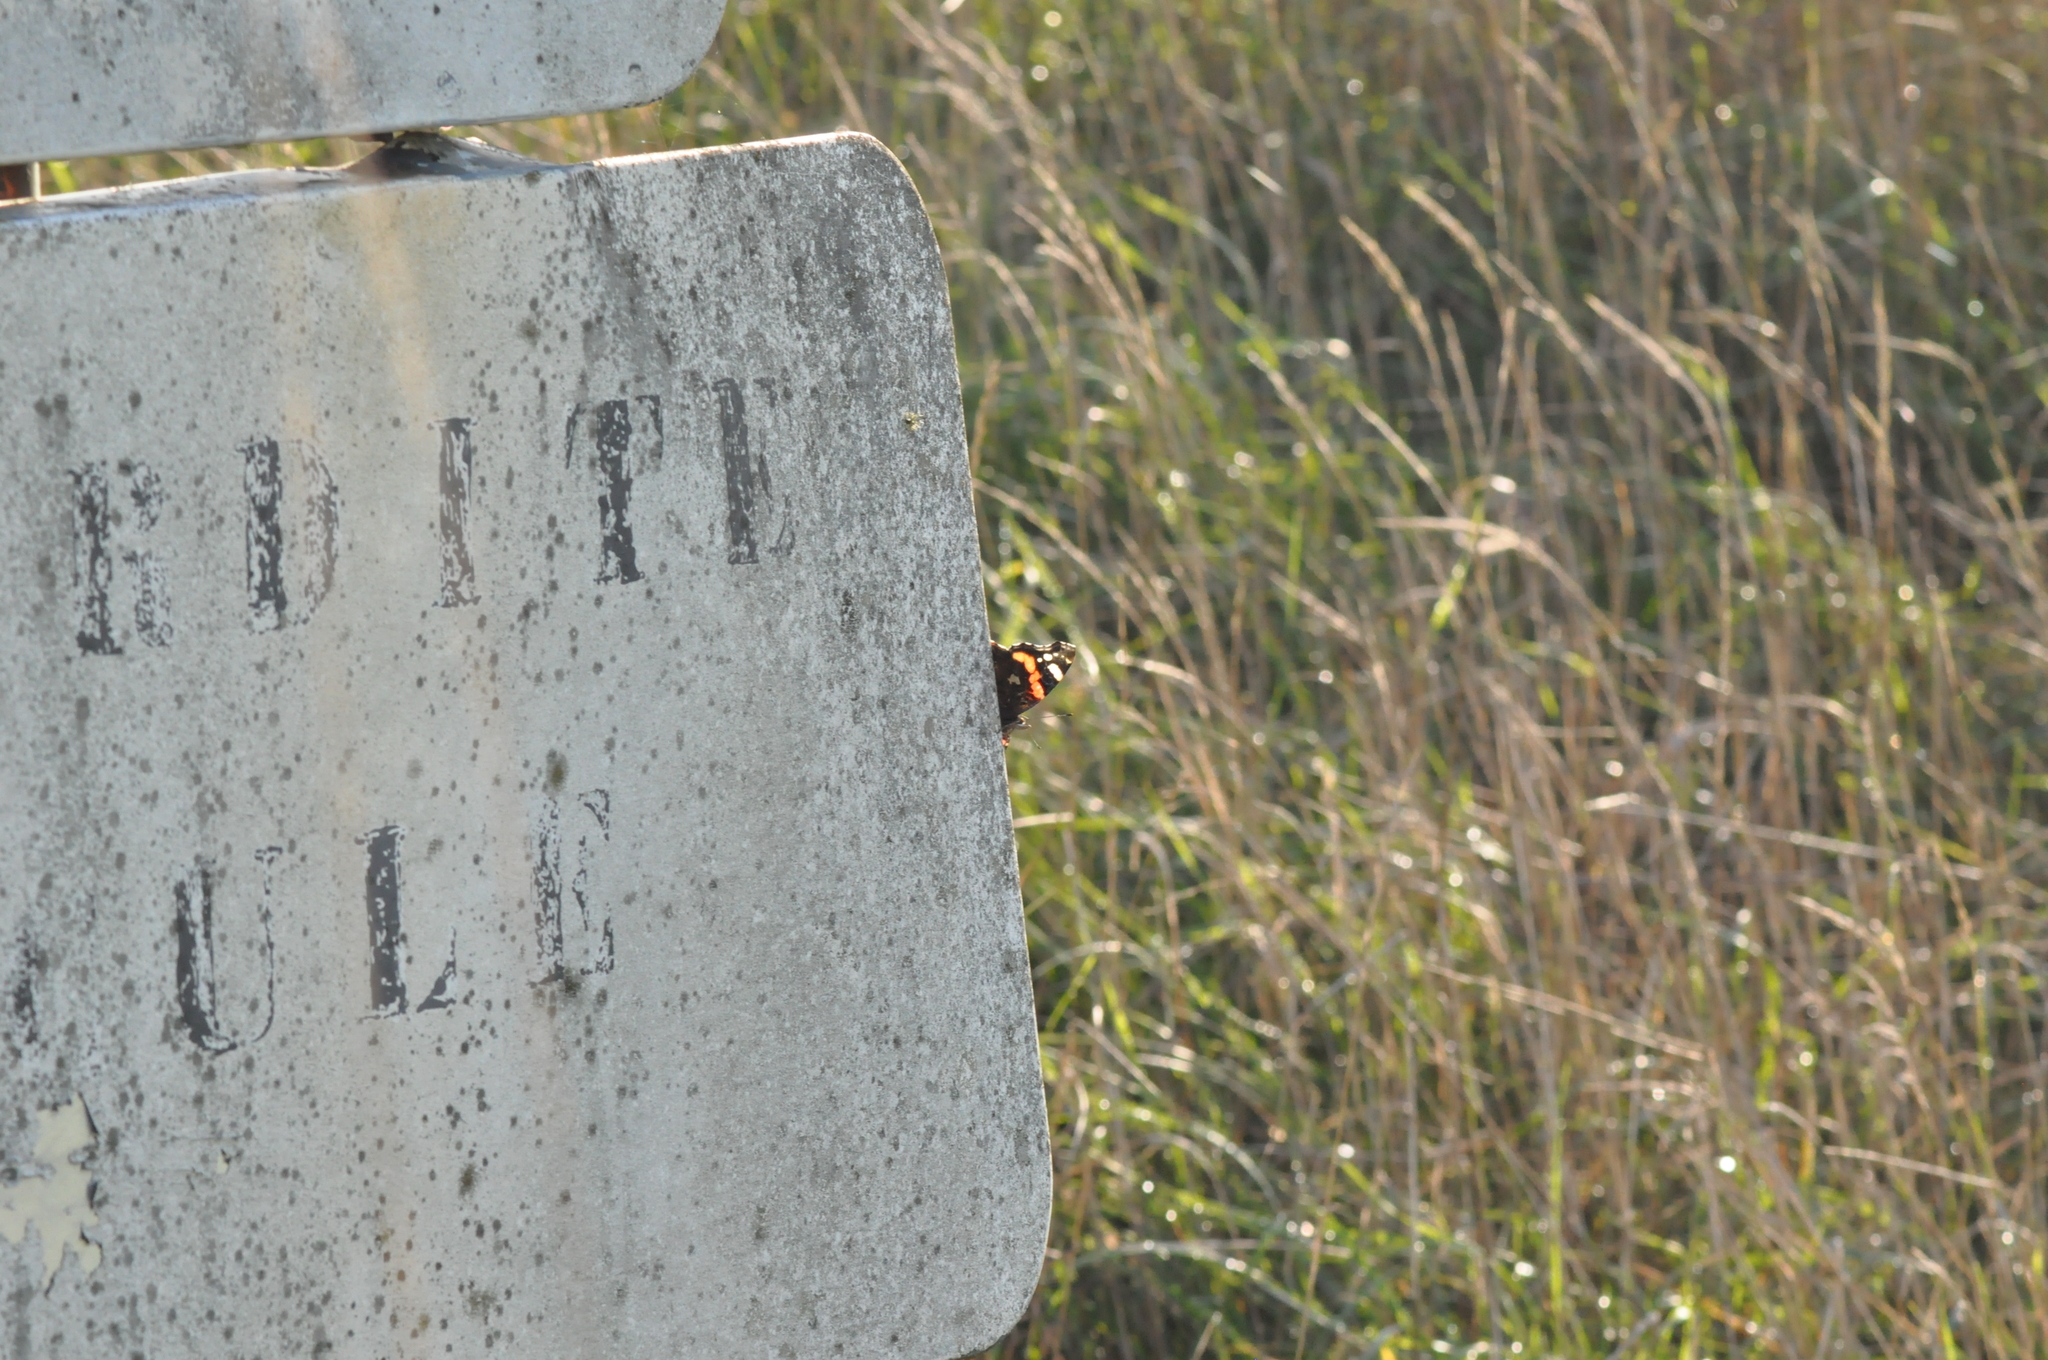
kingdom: Animalia
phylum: Arthropoda
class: Insecta
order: Lepidoptera
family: Nymphalidae
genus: Vanessa
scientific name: Vanessa atalanta
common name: Red admiral
